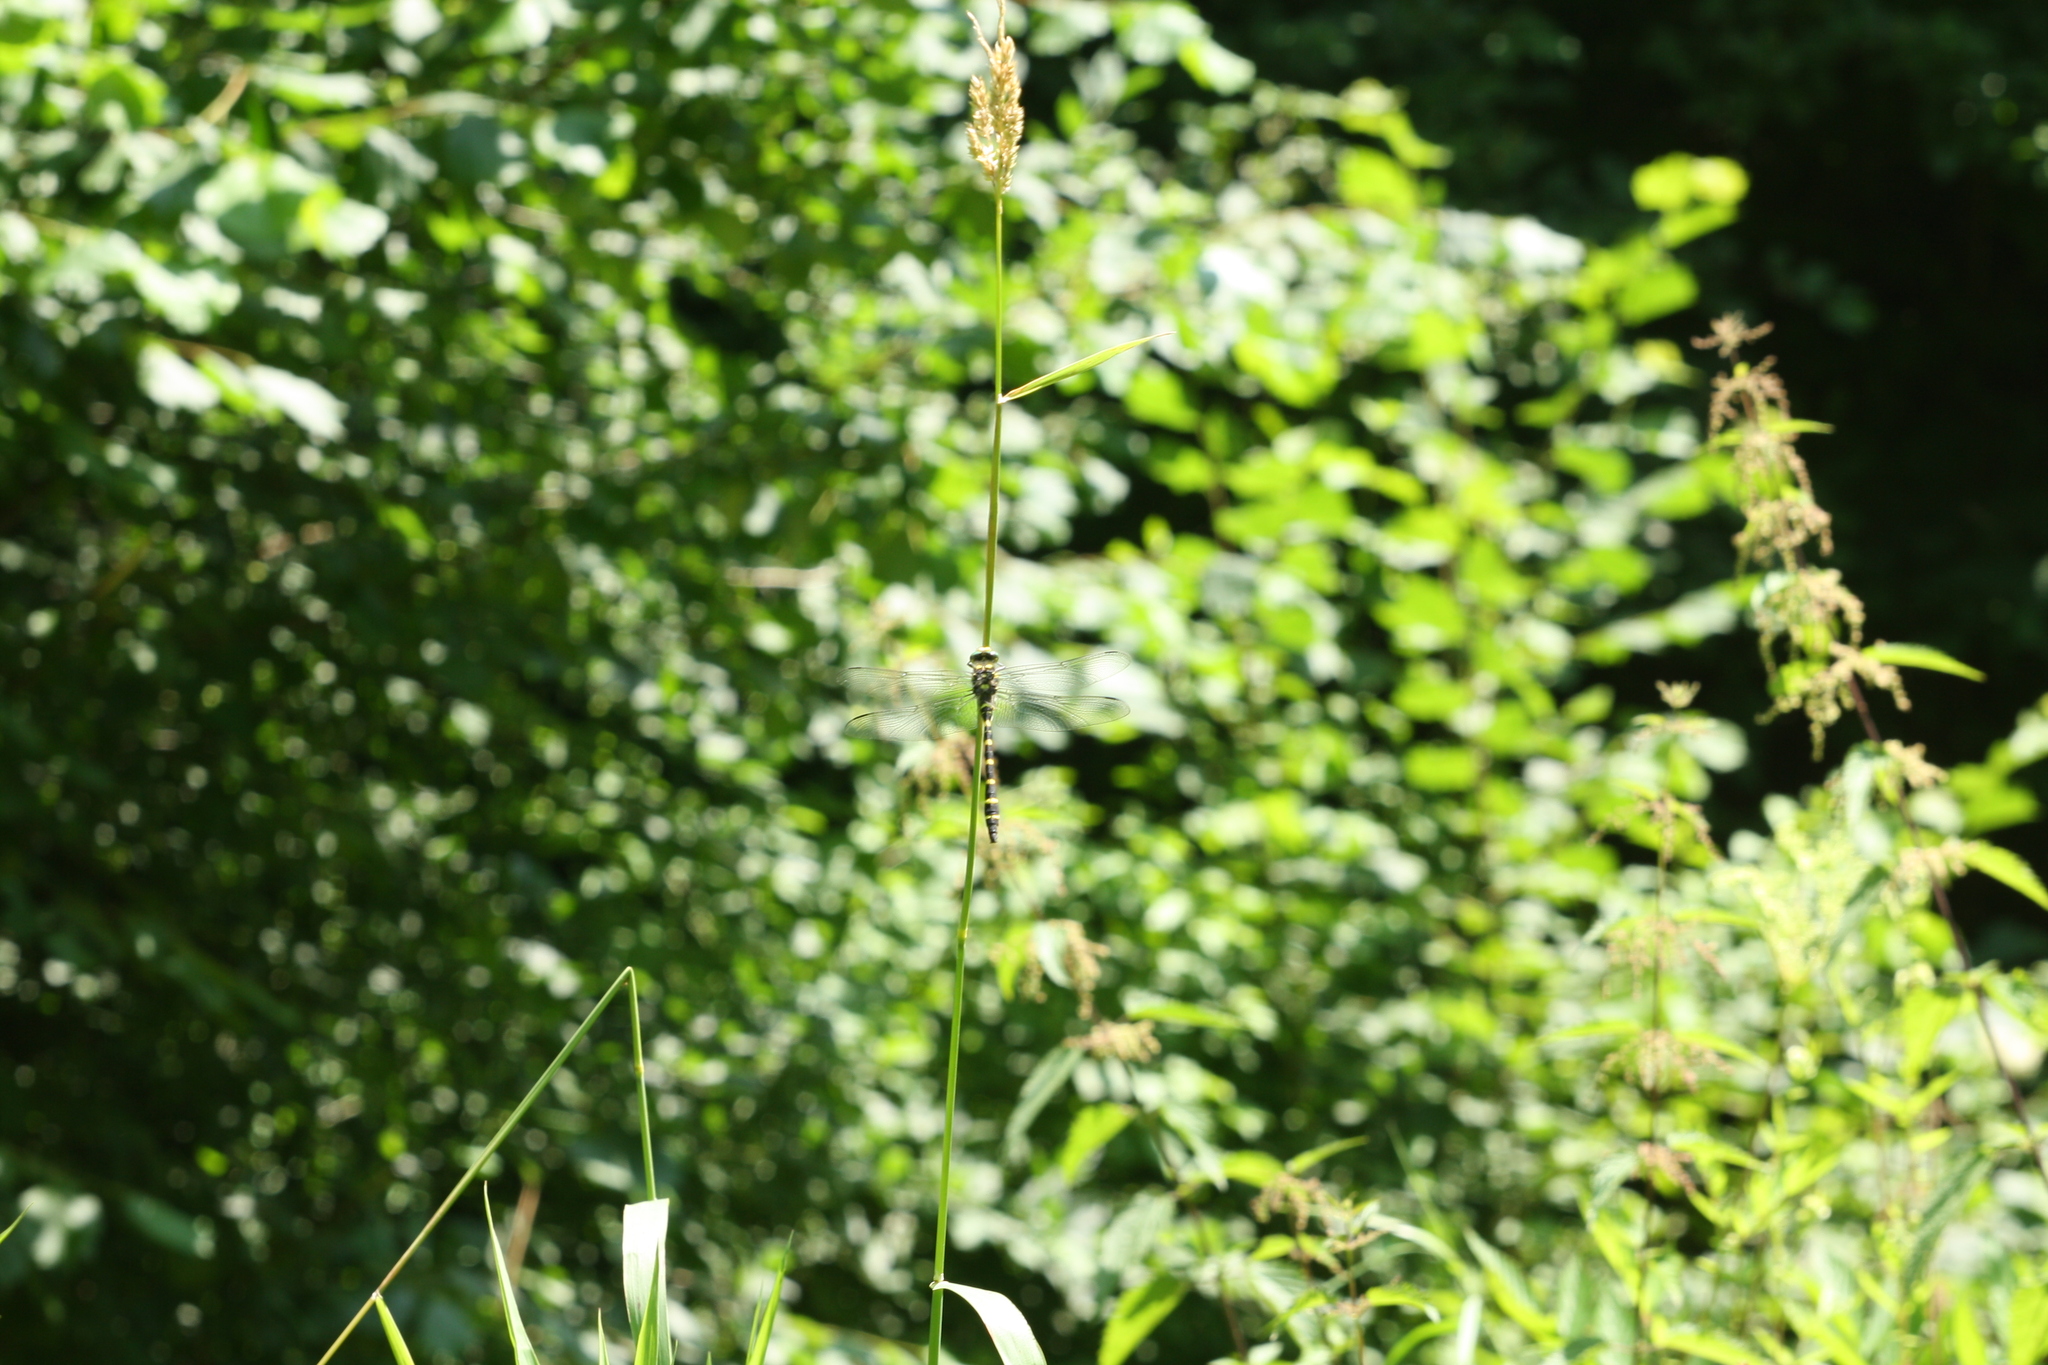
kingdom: Animalia
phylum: Arthropoda
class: Insecta
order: Odonata
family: Cordulegastridae
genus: Cordulegaster
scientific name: Cordulegaster heros
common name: Balkan goldenring
